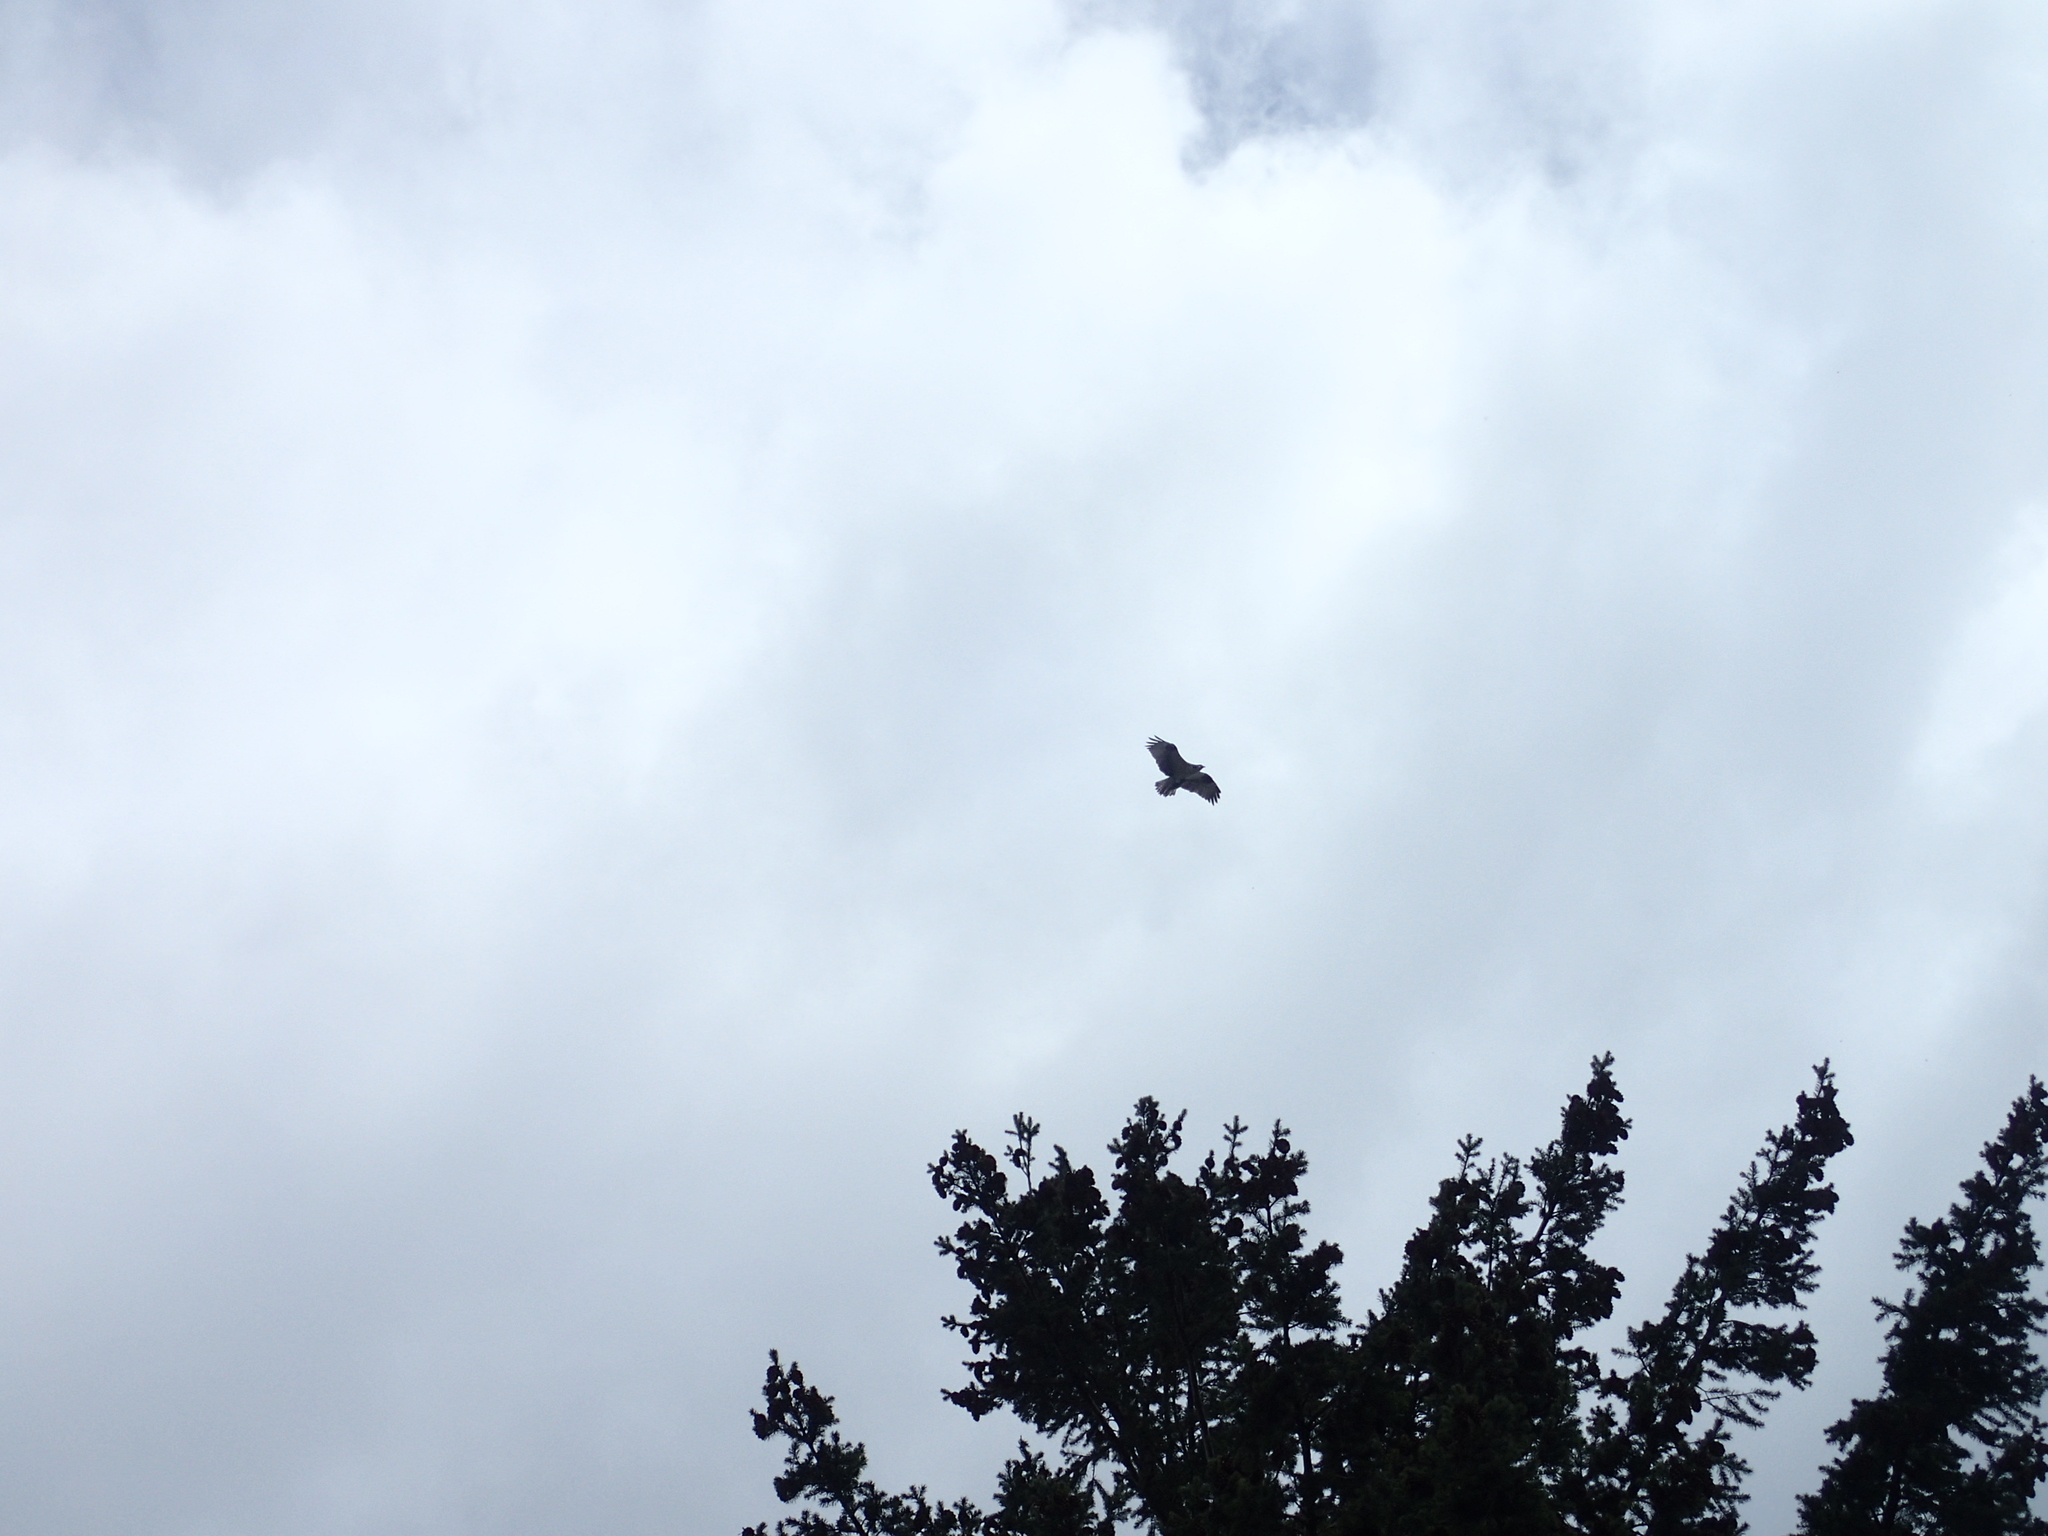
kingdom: Animalia
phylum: Chordata
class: Aves
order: Accipitriformes
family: Pandionidae
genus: Pandion
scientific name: Pandion haliaetus
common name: Osprey
